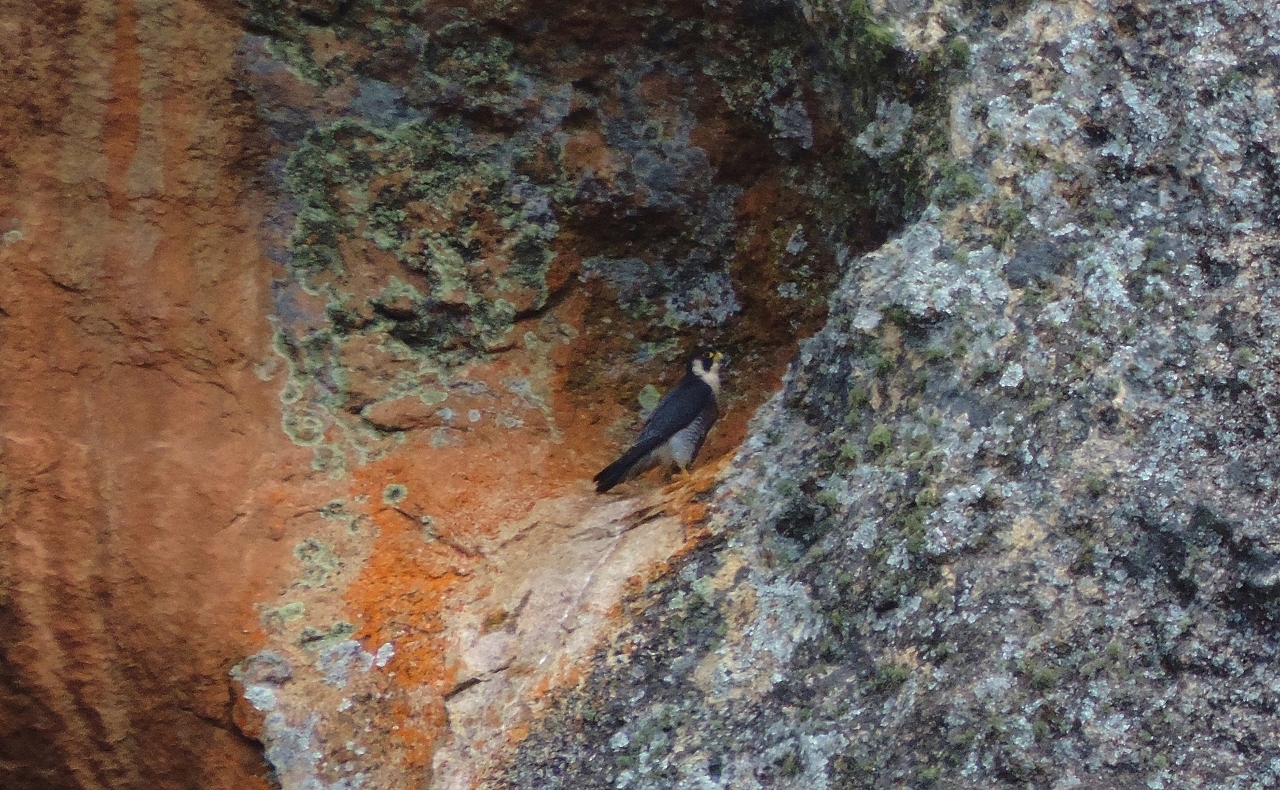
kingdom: Animalia
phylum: Chordata
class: Aves
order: Falconiformes
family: Falconidae
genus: Falco
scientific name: Falco peregrinus
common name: Peregrine falcon
